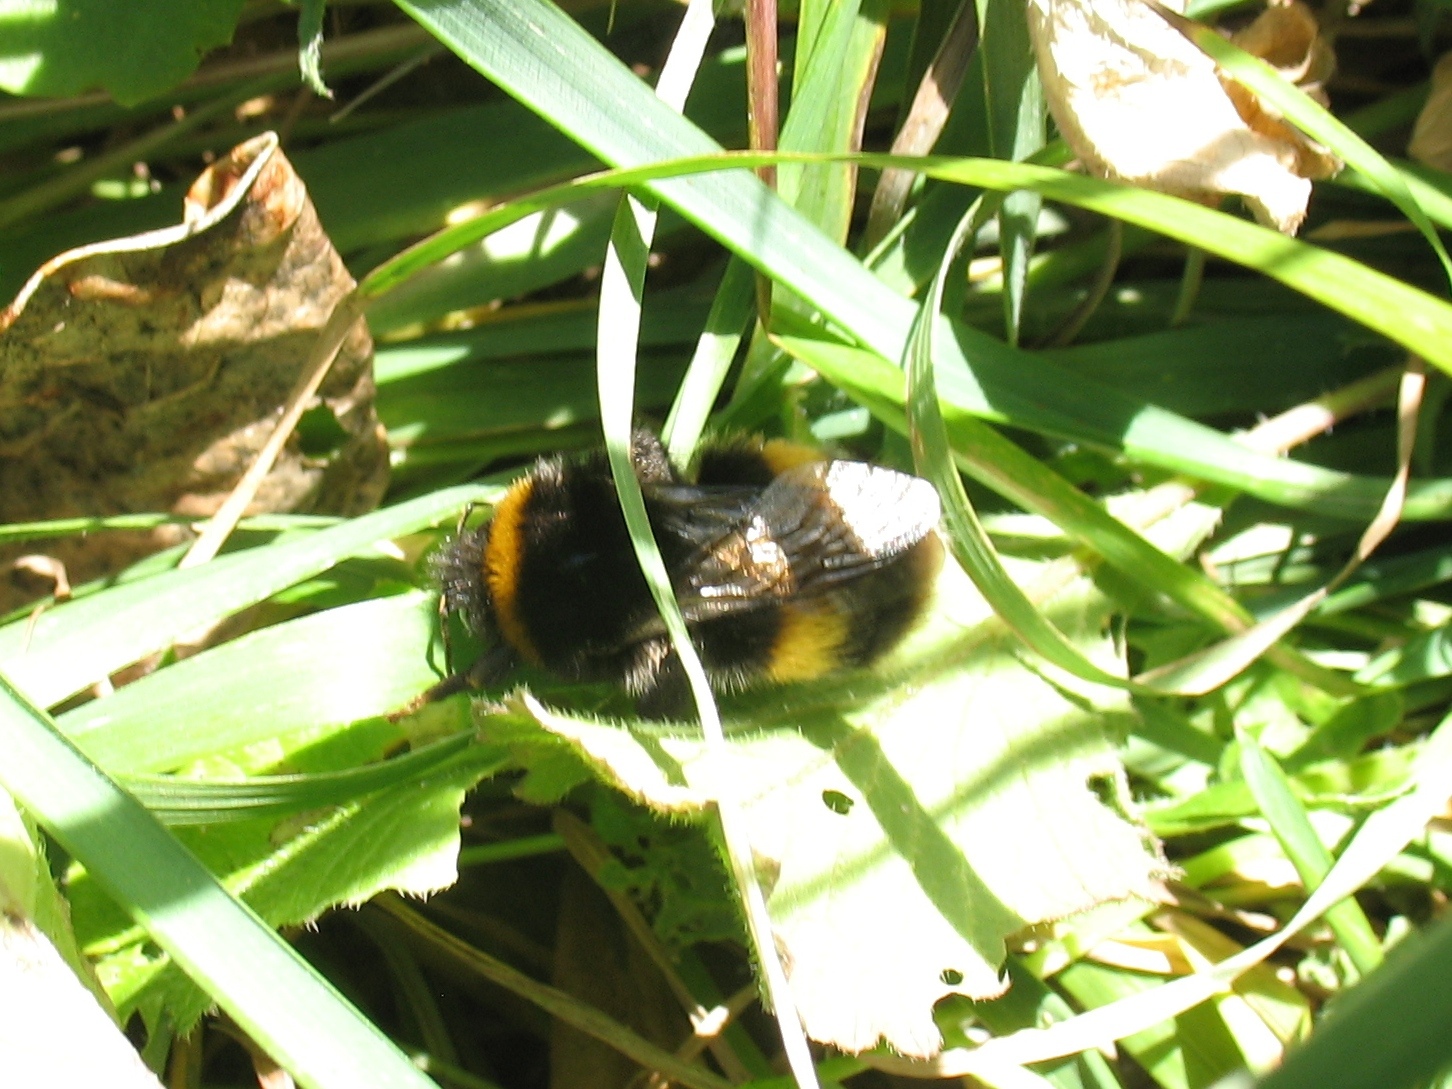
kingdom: Animalia
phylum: Arthropoda
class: Insecta
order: Hymenoptera
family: Apidae
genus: Bombus
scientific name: Bombus terrestris
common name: Buff-tailed bumblebee
